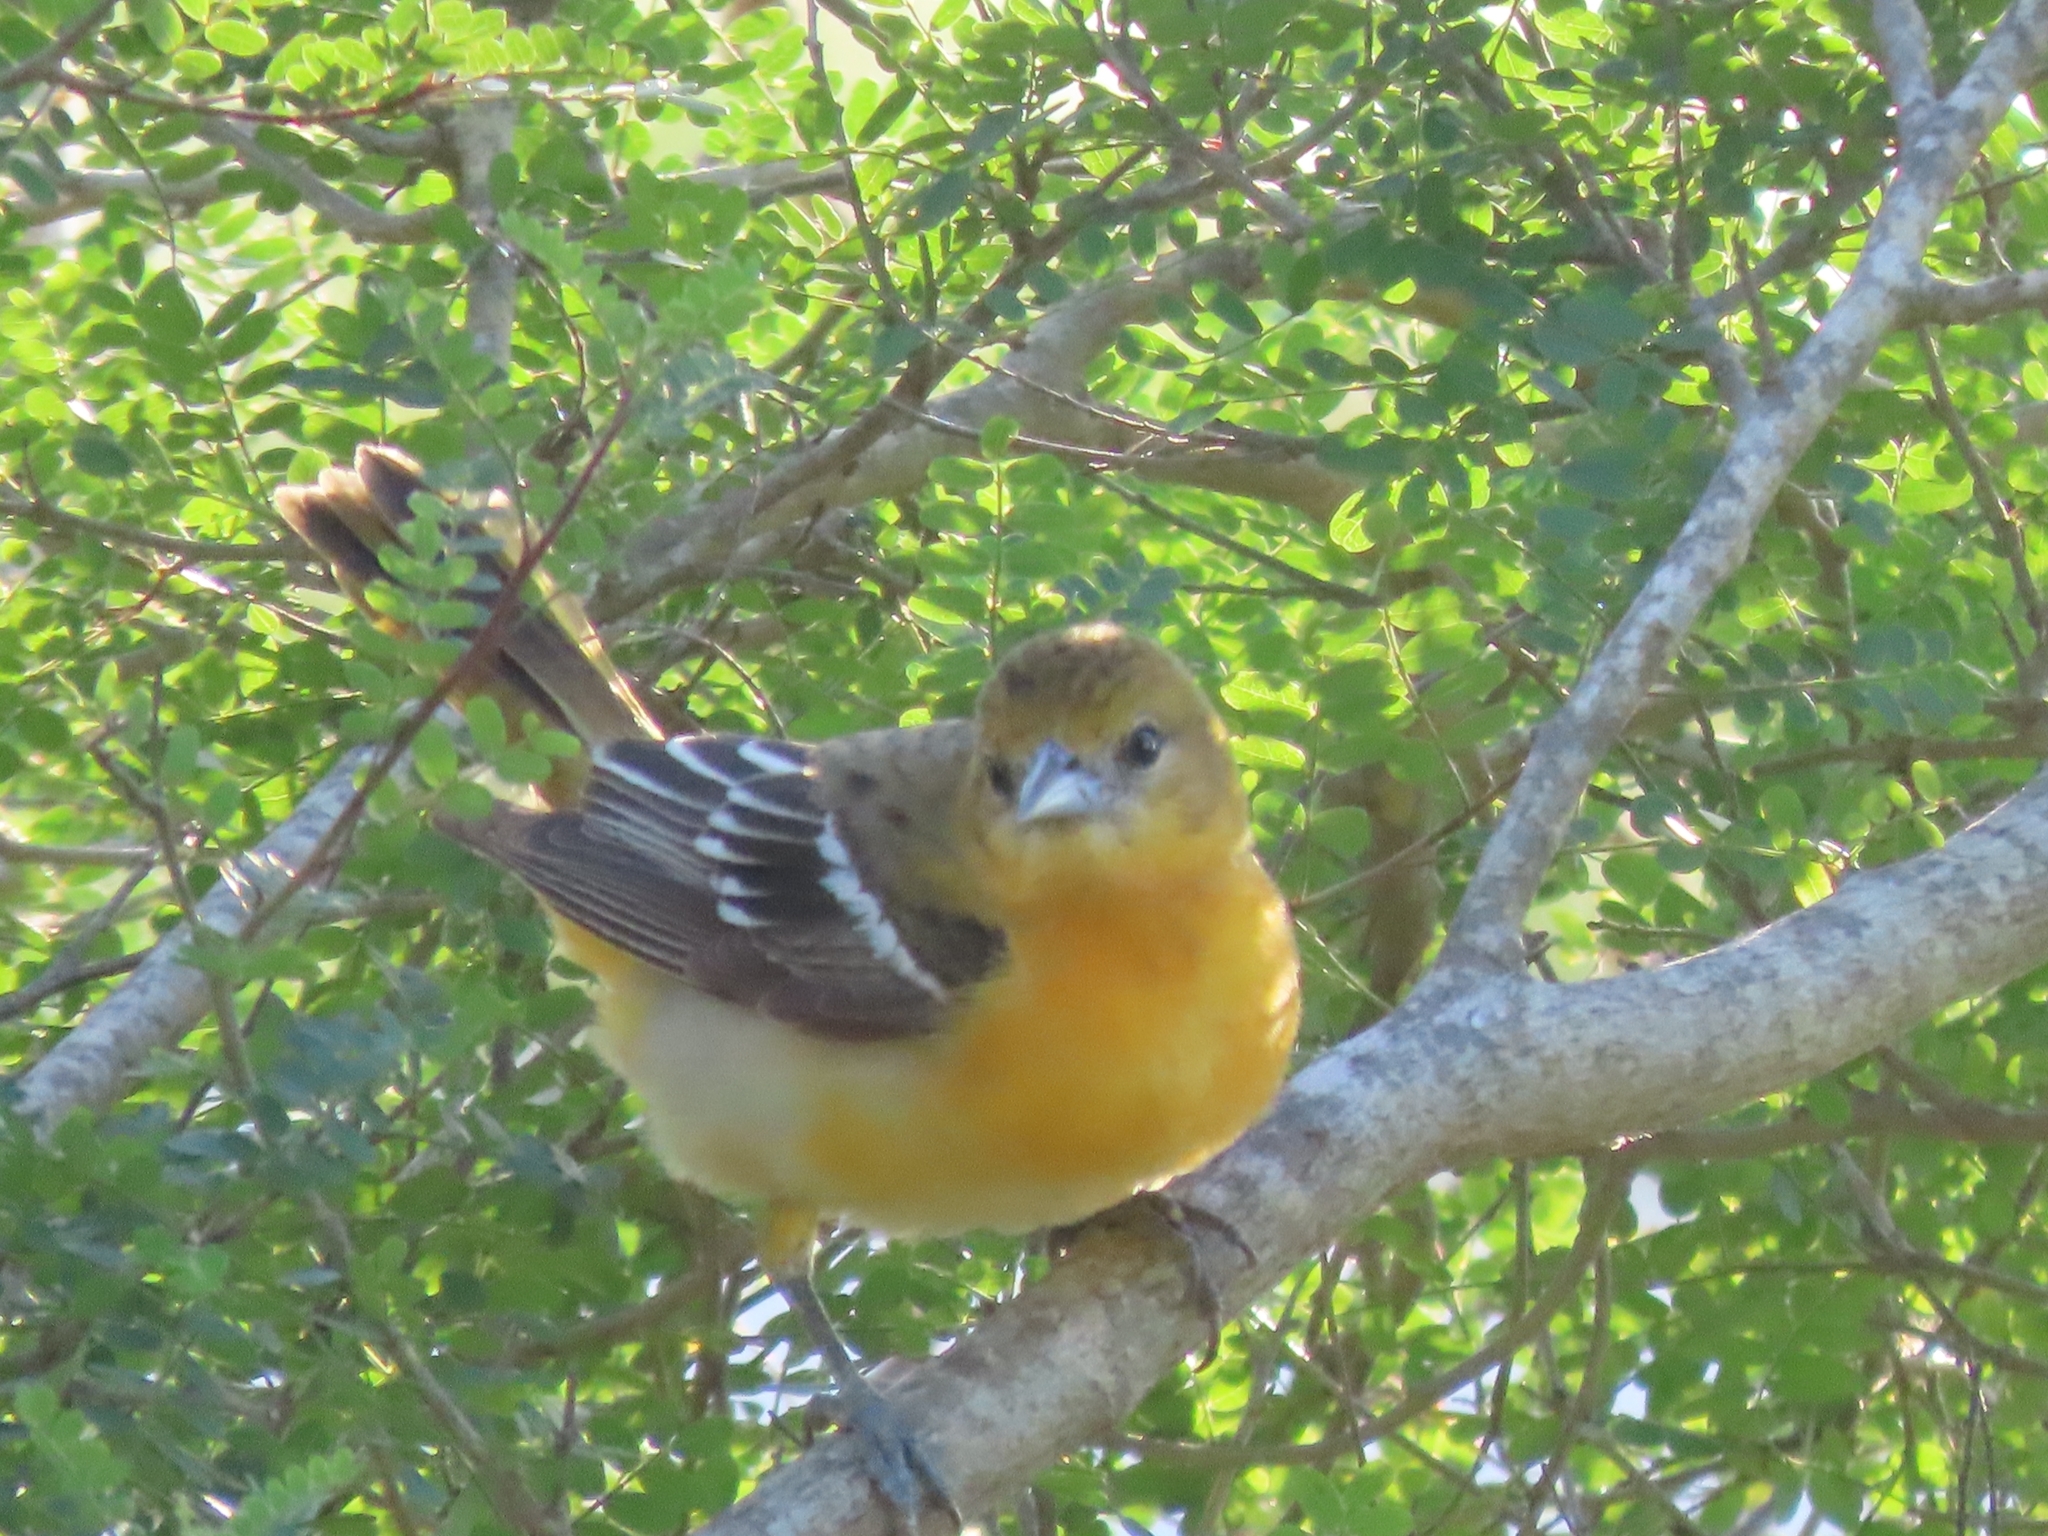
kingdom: Animalia
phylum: Chordata
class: Aves
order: Passeriformes
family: Icteridae
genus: Icterus
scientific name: Icterus galbula
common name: Baltimore oriole
